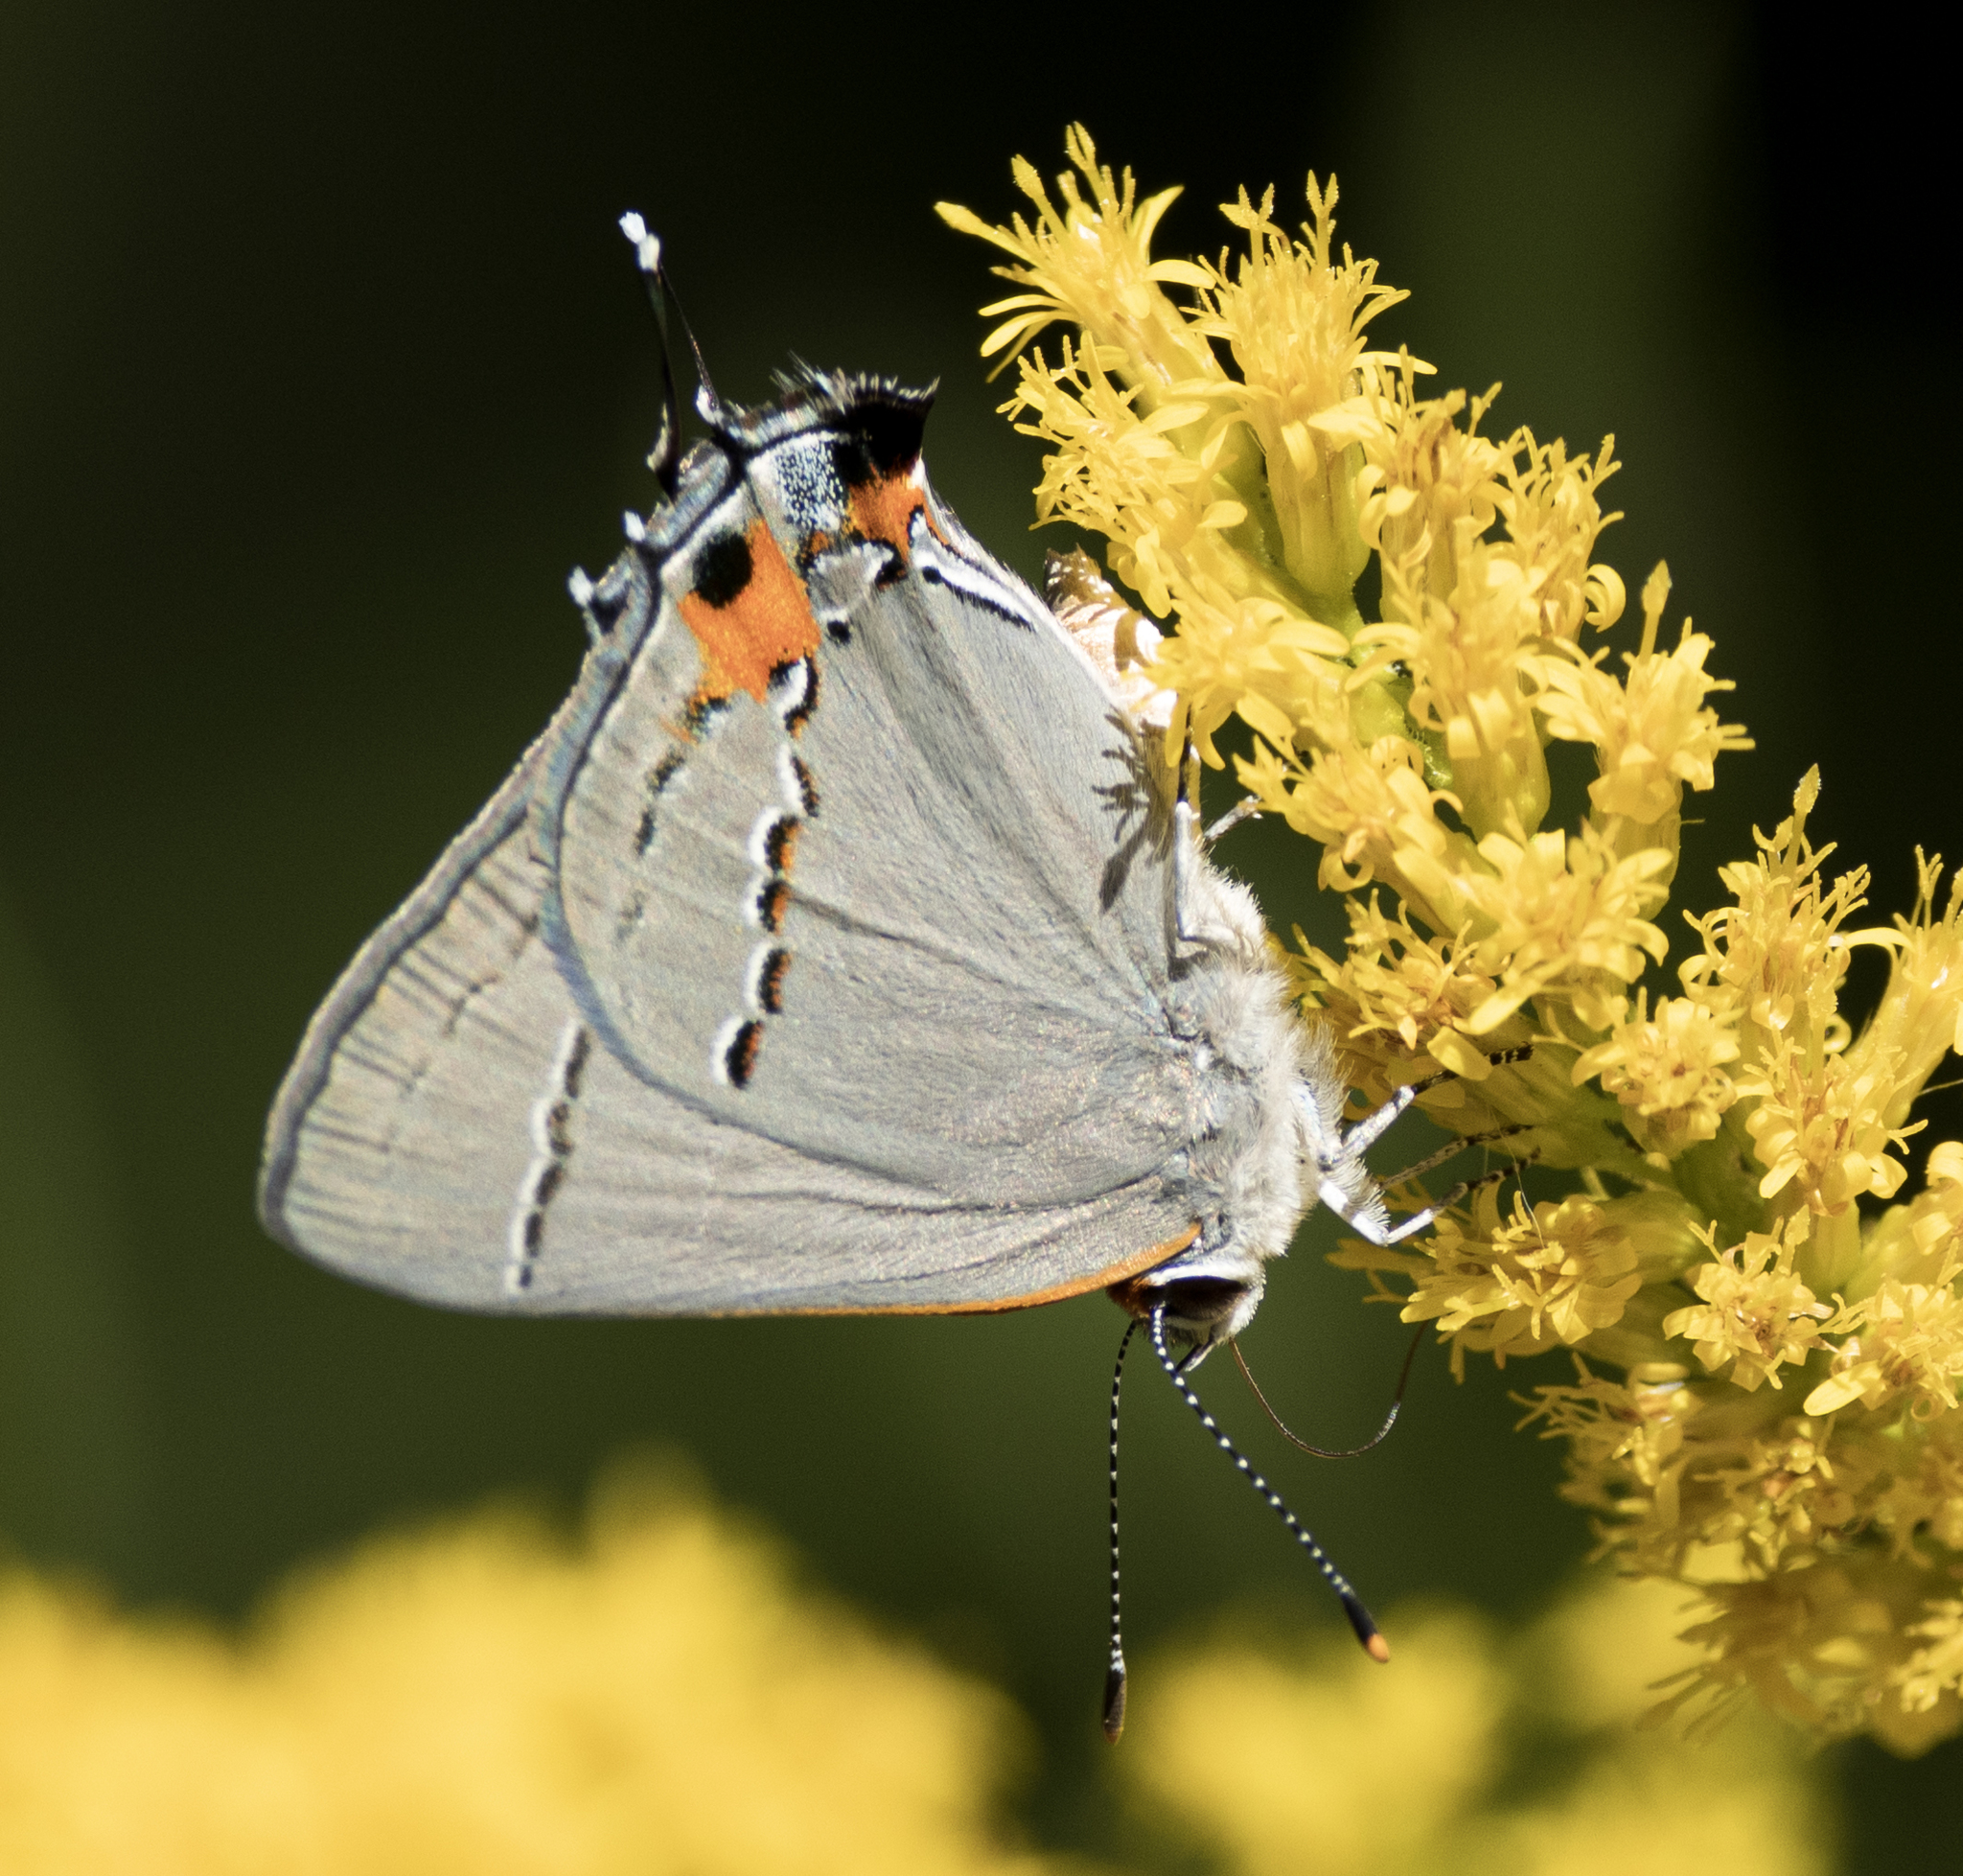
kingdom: Animalia
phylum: Arthropoda
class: Insecta
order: Lepidoptera
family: Lycaenidae
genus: Strymon
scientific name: Strymon melinus
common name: Gray hairstreak
